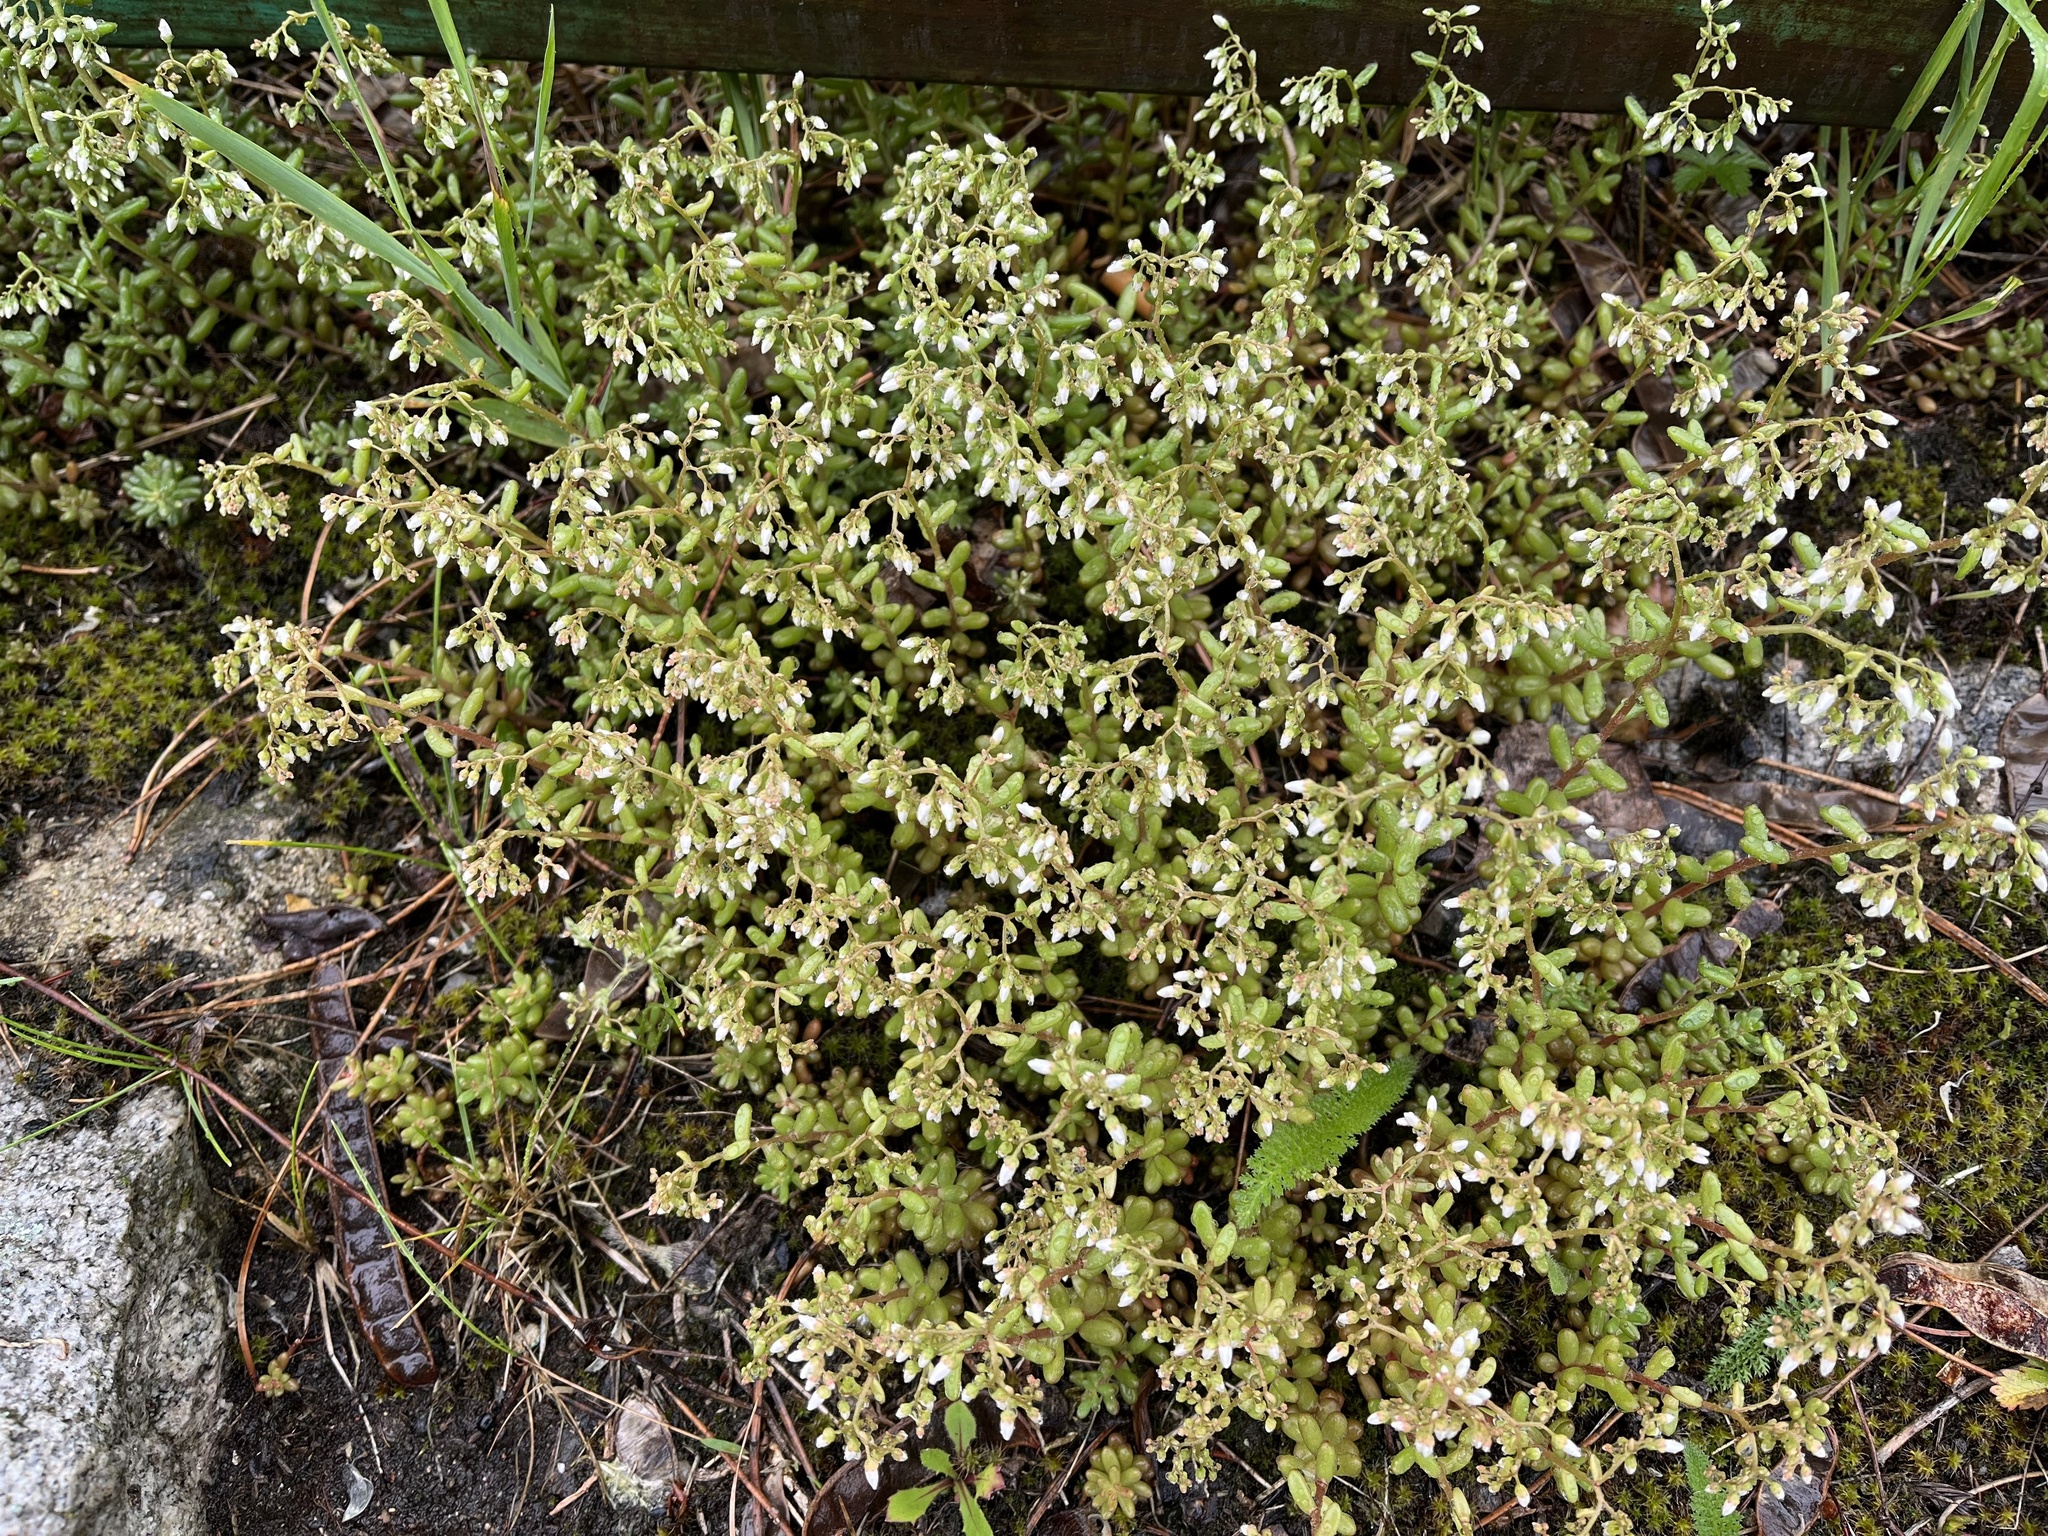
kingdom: Plantae
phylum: Tracheophyta
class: Magnoliopsida
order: Saxifragales
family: Crassulaceae
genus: Sedum
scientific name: Sedum album
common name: White stonecrop
